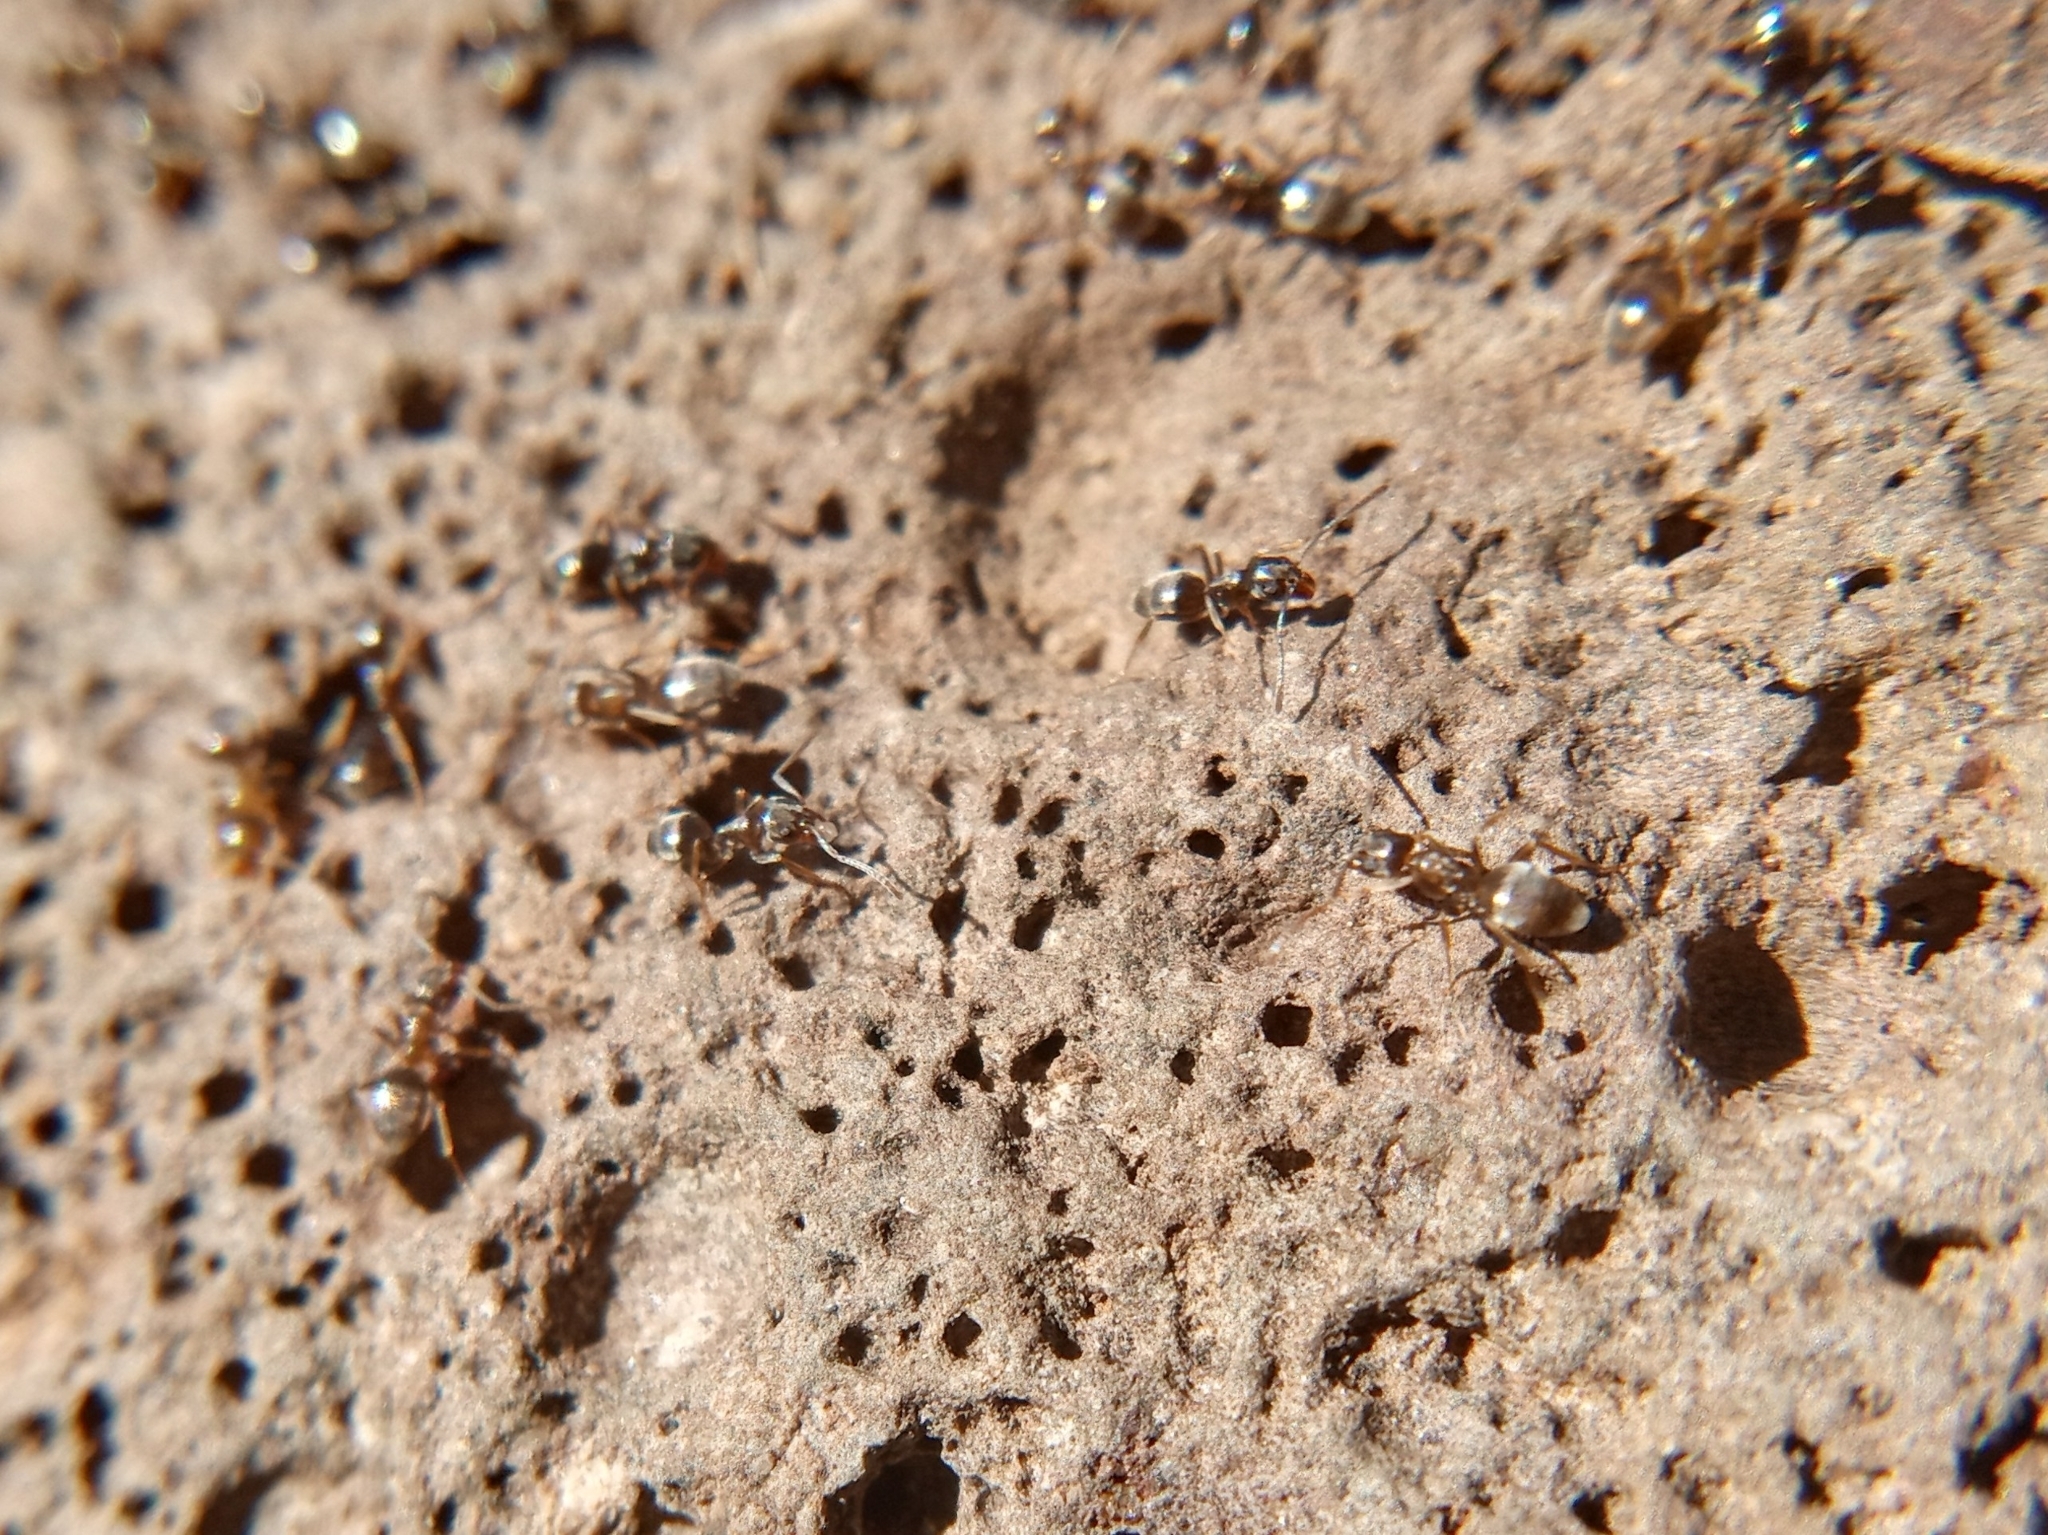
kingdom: Animalia
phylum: Arthropoda
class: Insecta
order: Hymenoptera
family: Formicidae
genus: Tapinoma
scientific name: Tapinoma sessile
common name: Odorous house ant
